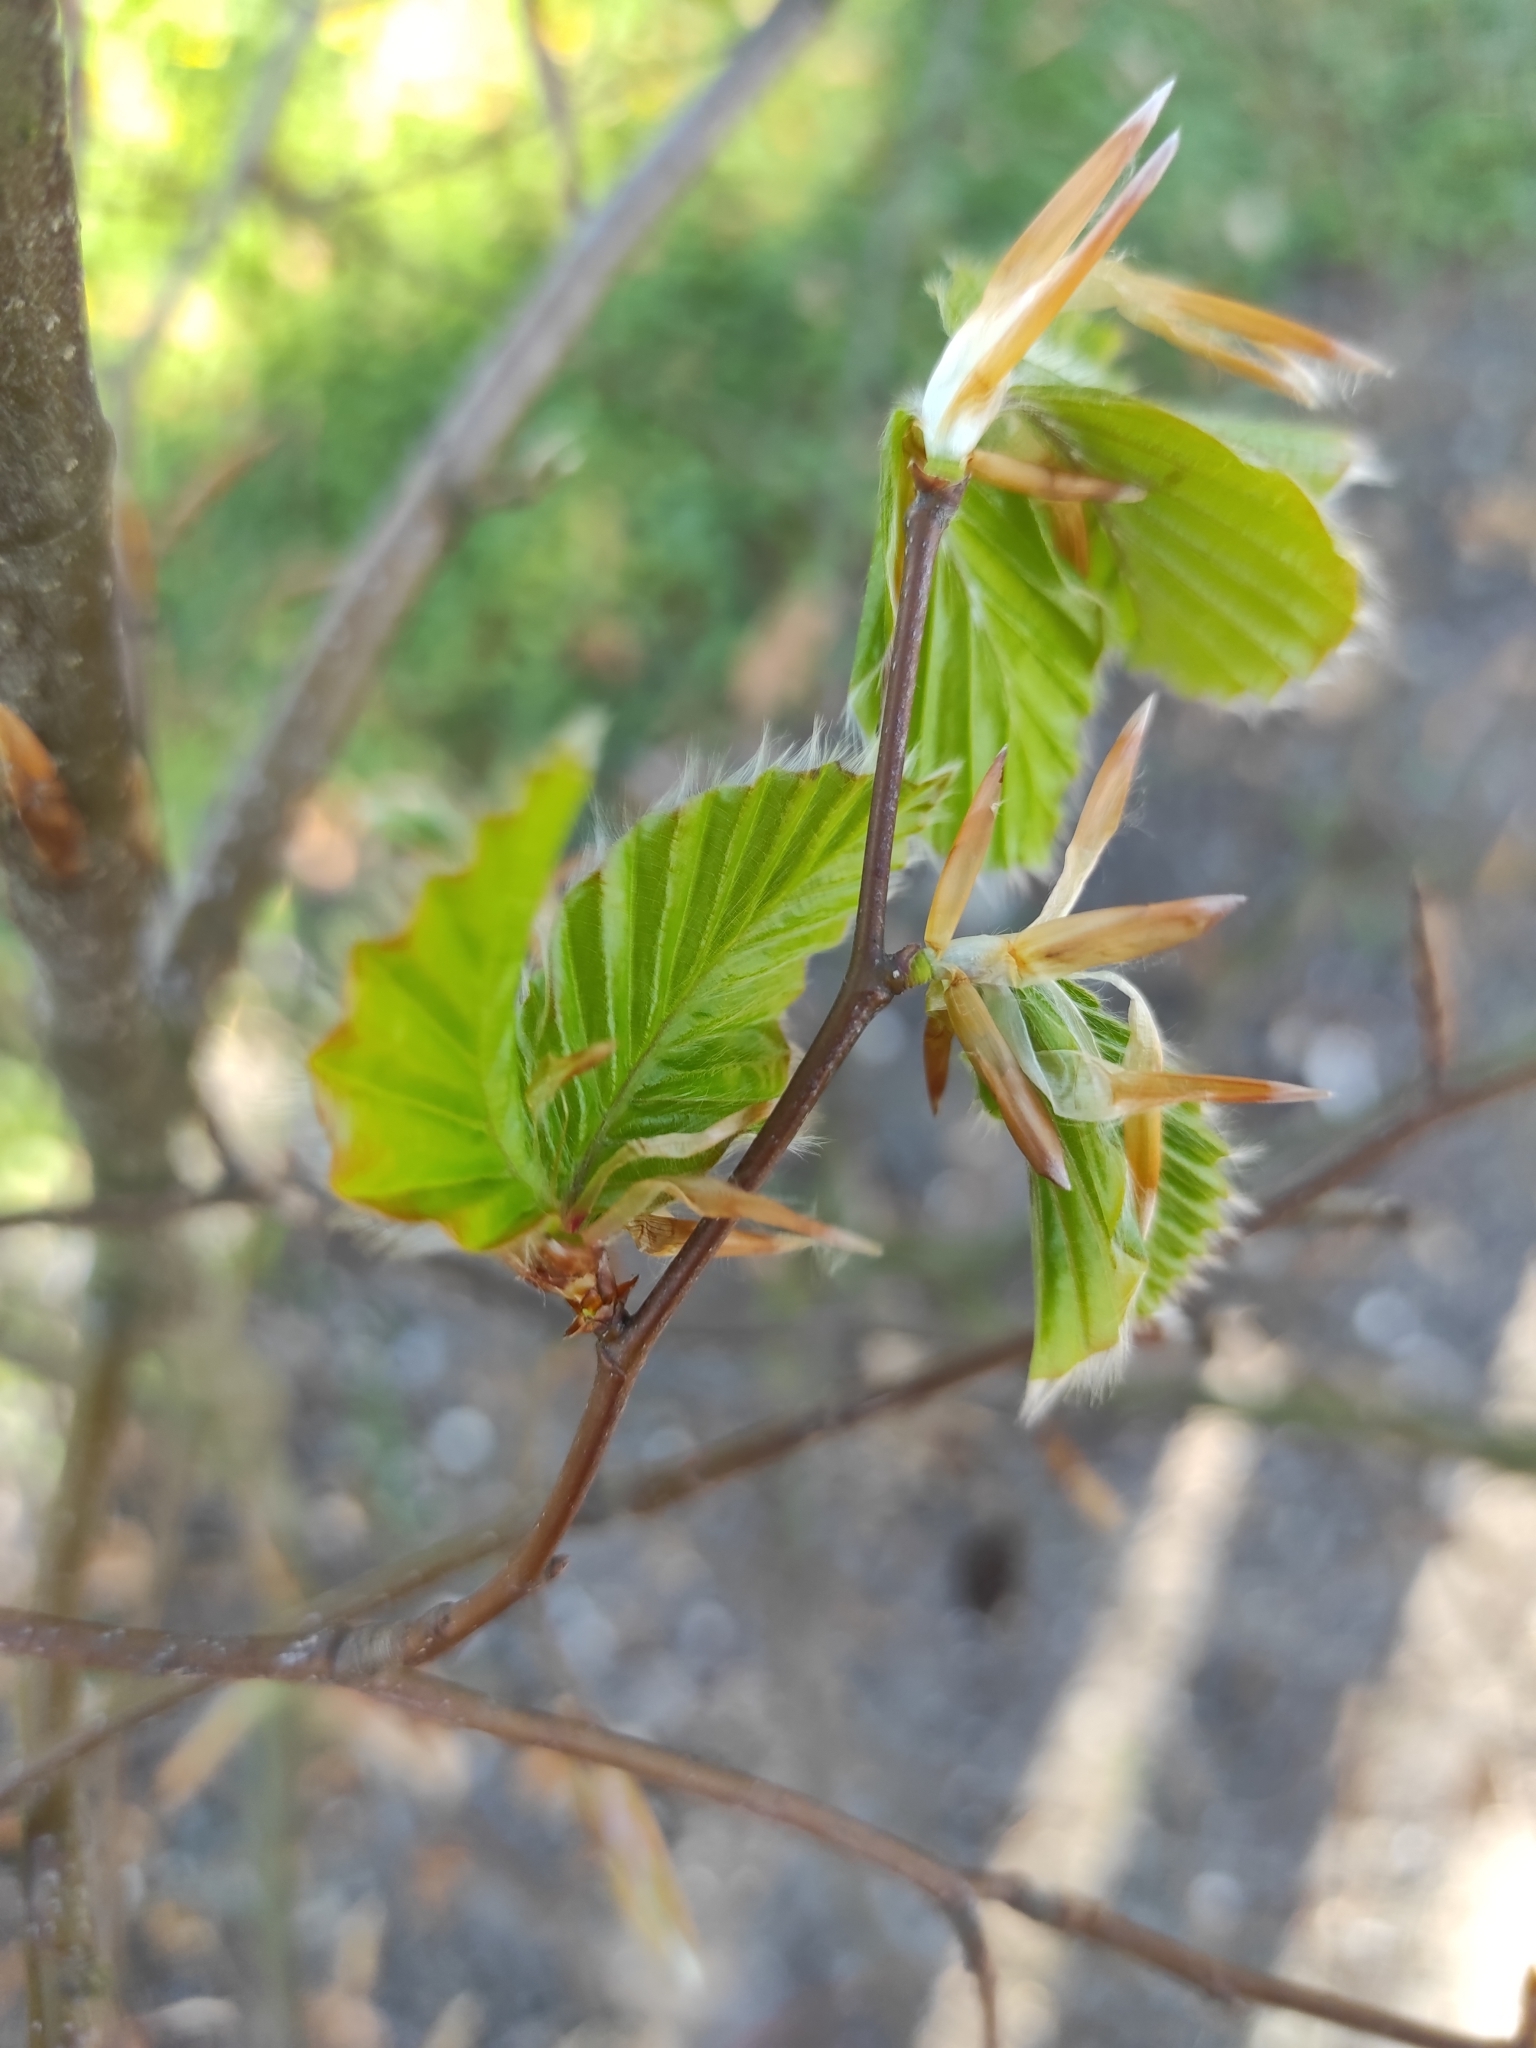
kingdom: Plantae
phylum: Tracheophyta
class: Magnoliopsida
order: Fagales
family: Fagaceae
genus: Fagus
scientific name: Fagus sylvatica
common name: Beech
